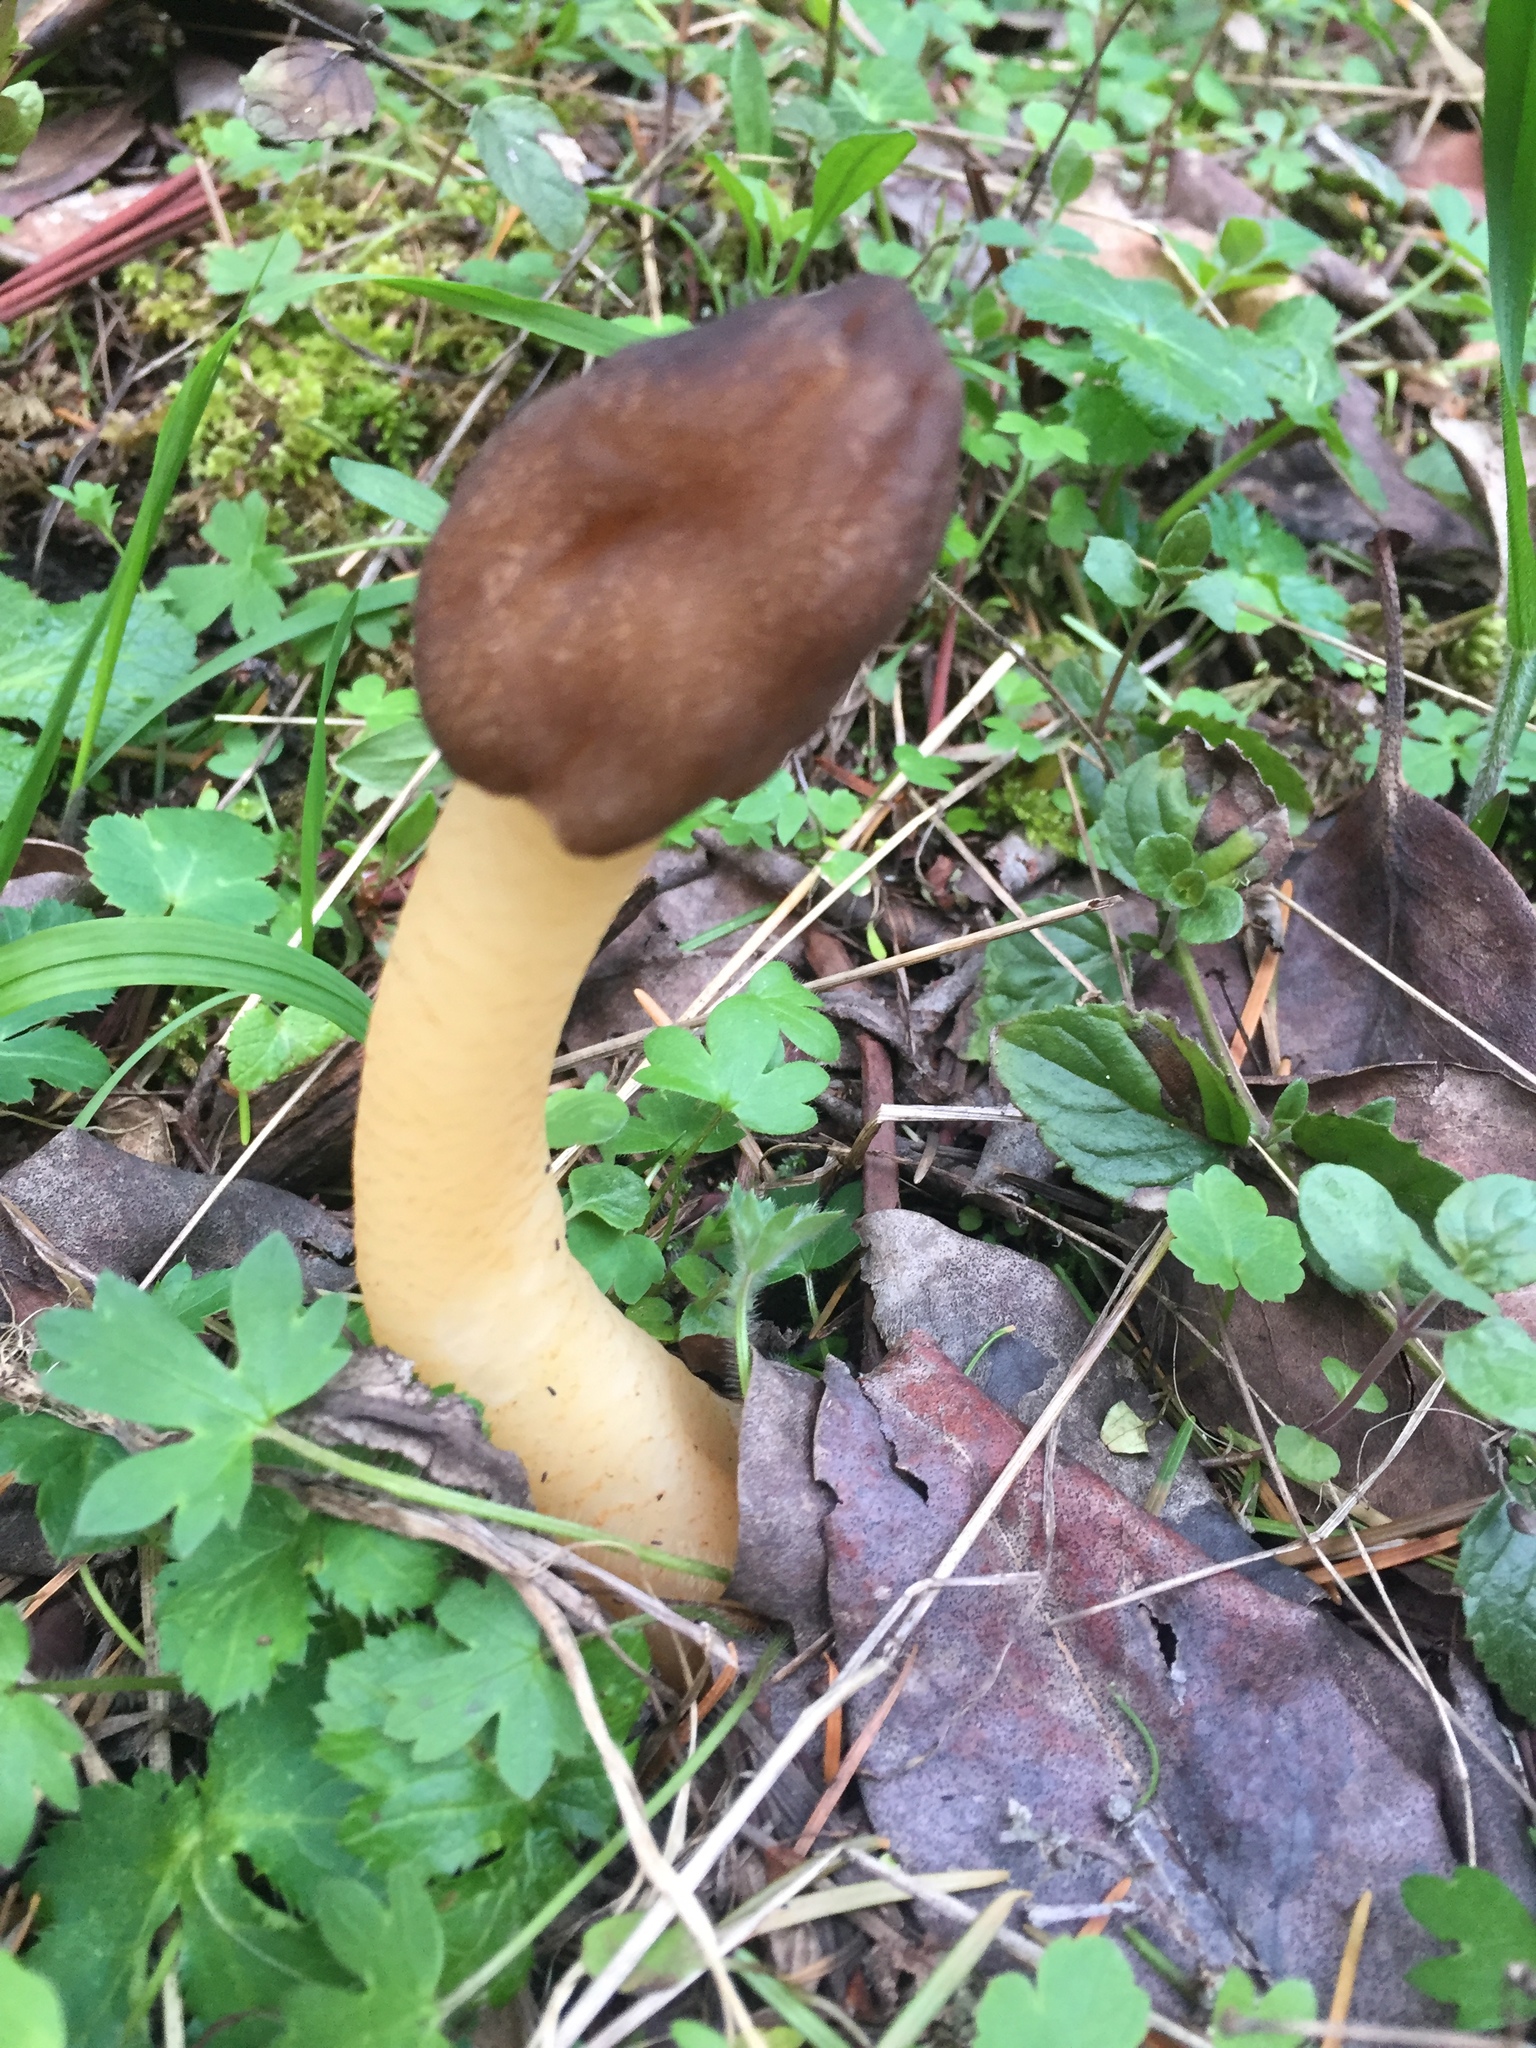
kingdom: Fungi
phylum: Ascomycota
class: Pezizomycetes
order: Pezizales
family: Morchellaceae
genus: Verpa
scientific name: Verpa conica
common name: Thimble morel
